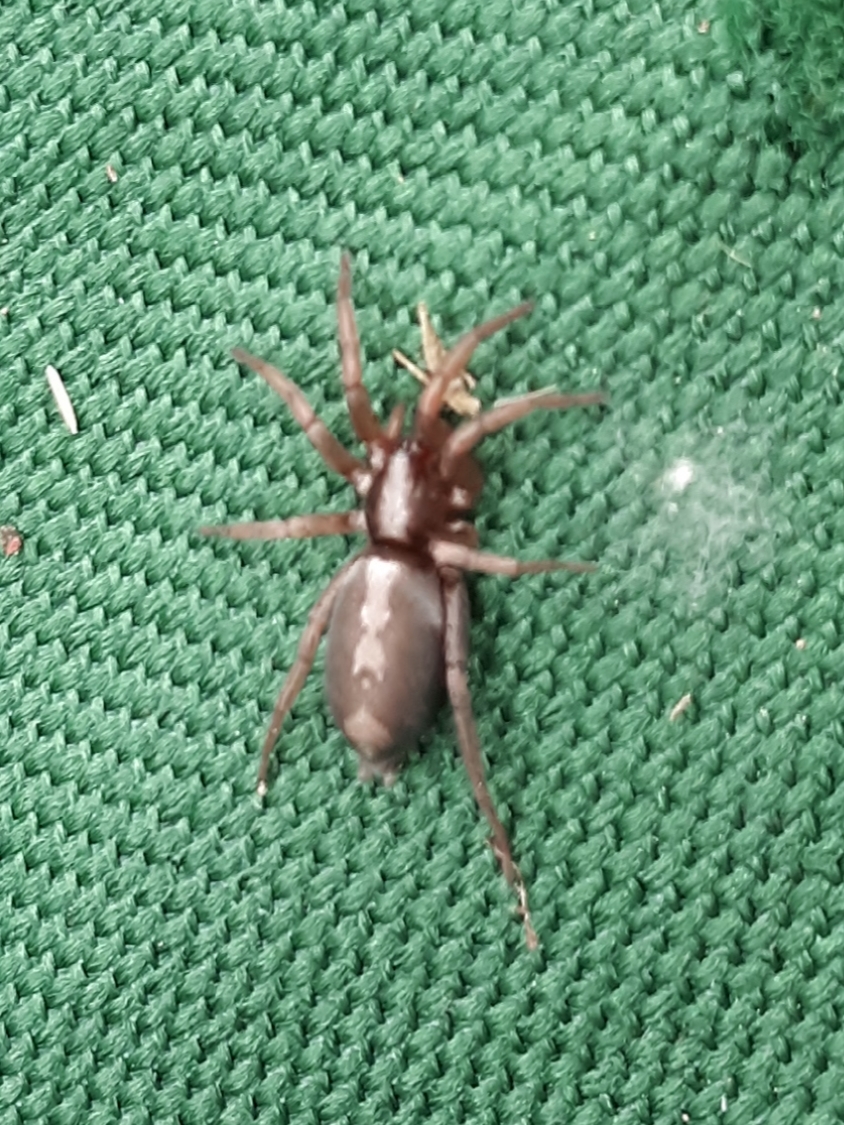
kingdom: Animalia
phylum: Arthropoda
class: Arachnida
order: Araneae
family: Gnaphosidae
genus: Herpyllus
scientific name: Herpyllus ecclesiasticus
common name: Eastern parson spider
